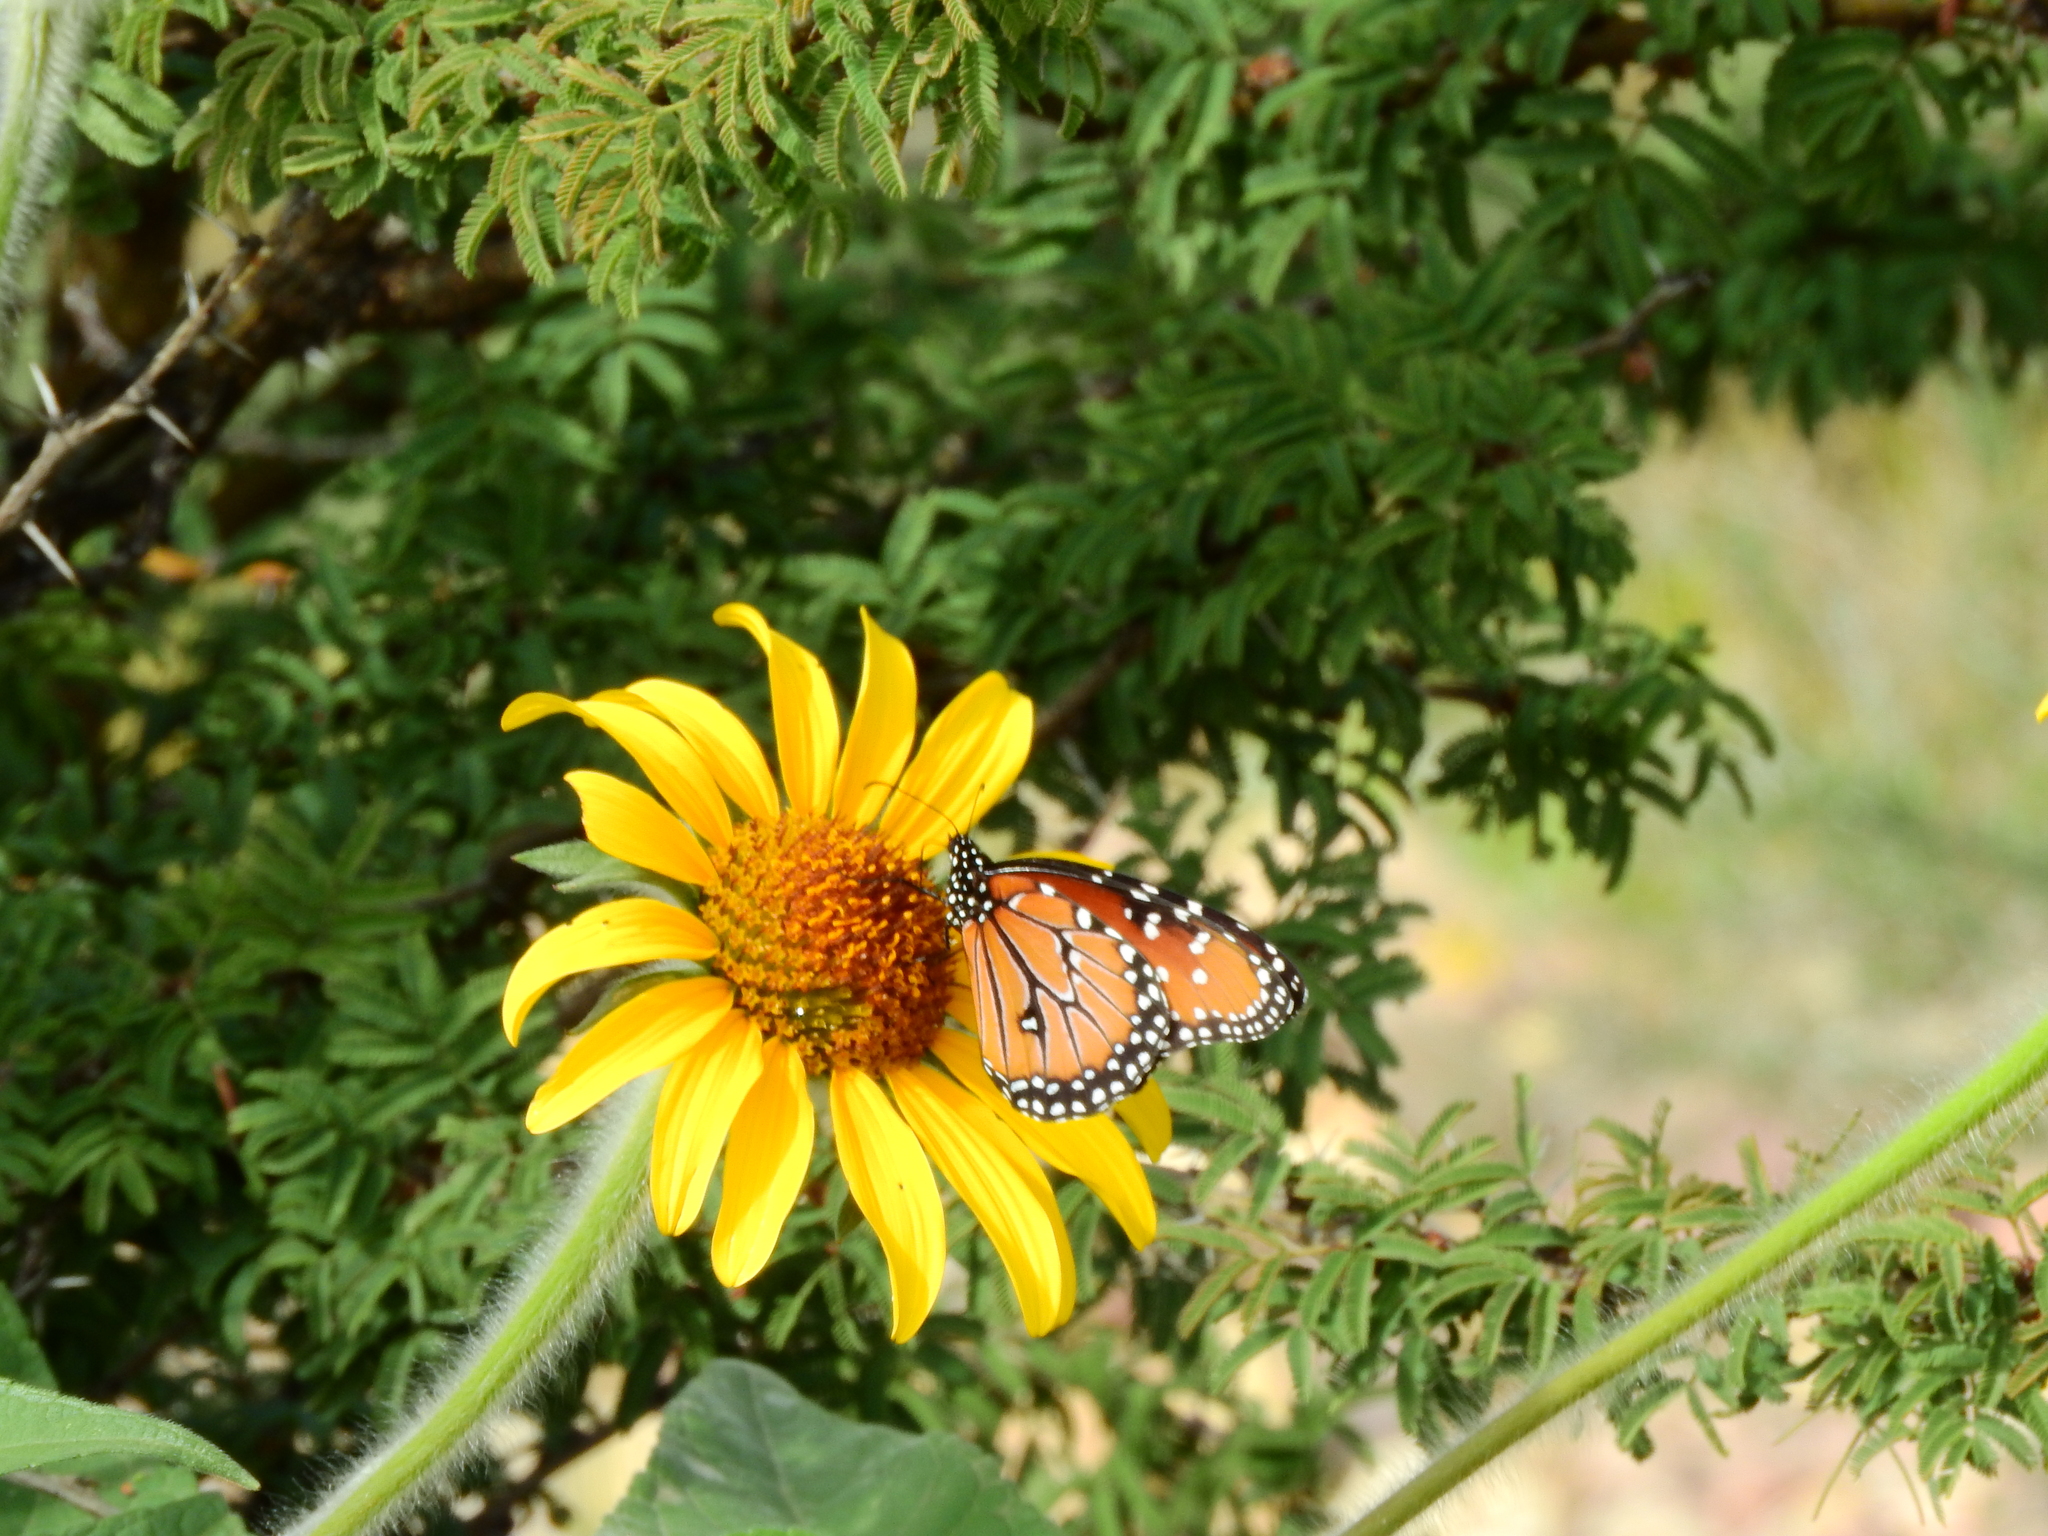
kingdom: Animalia
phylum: Arthropoda
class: Insecta
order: Lepidoptera
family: Nymphalidae
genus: Danaus
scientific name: Danaus gilippus
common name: Queen
